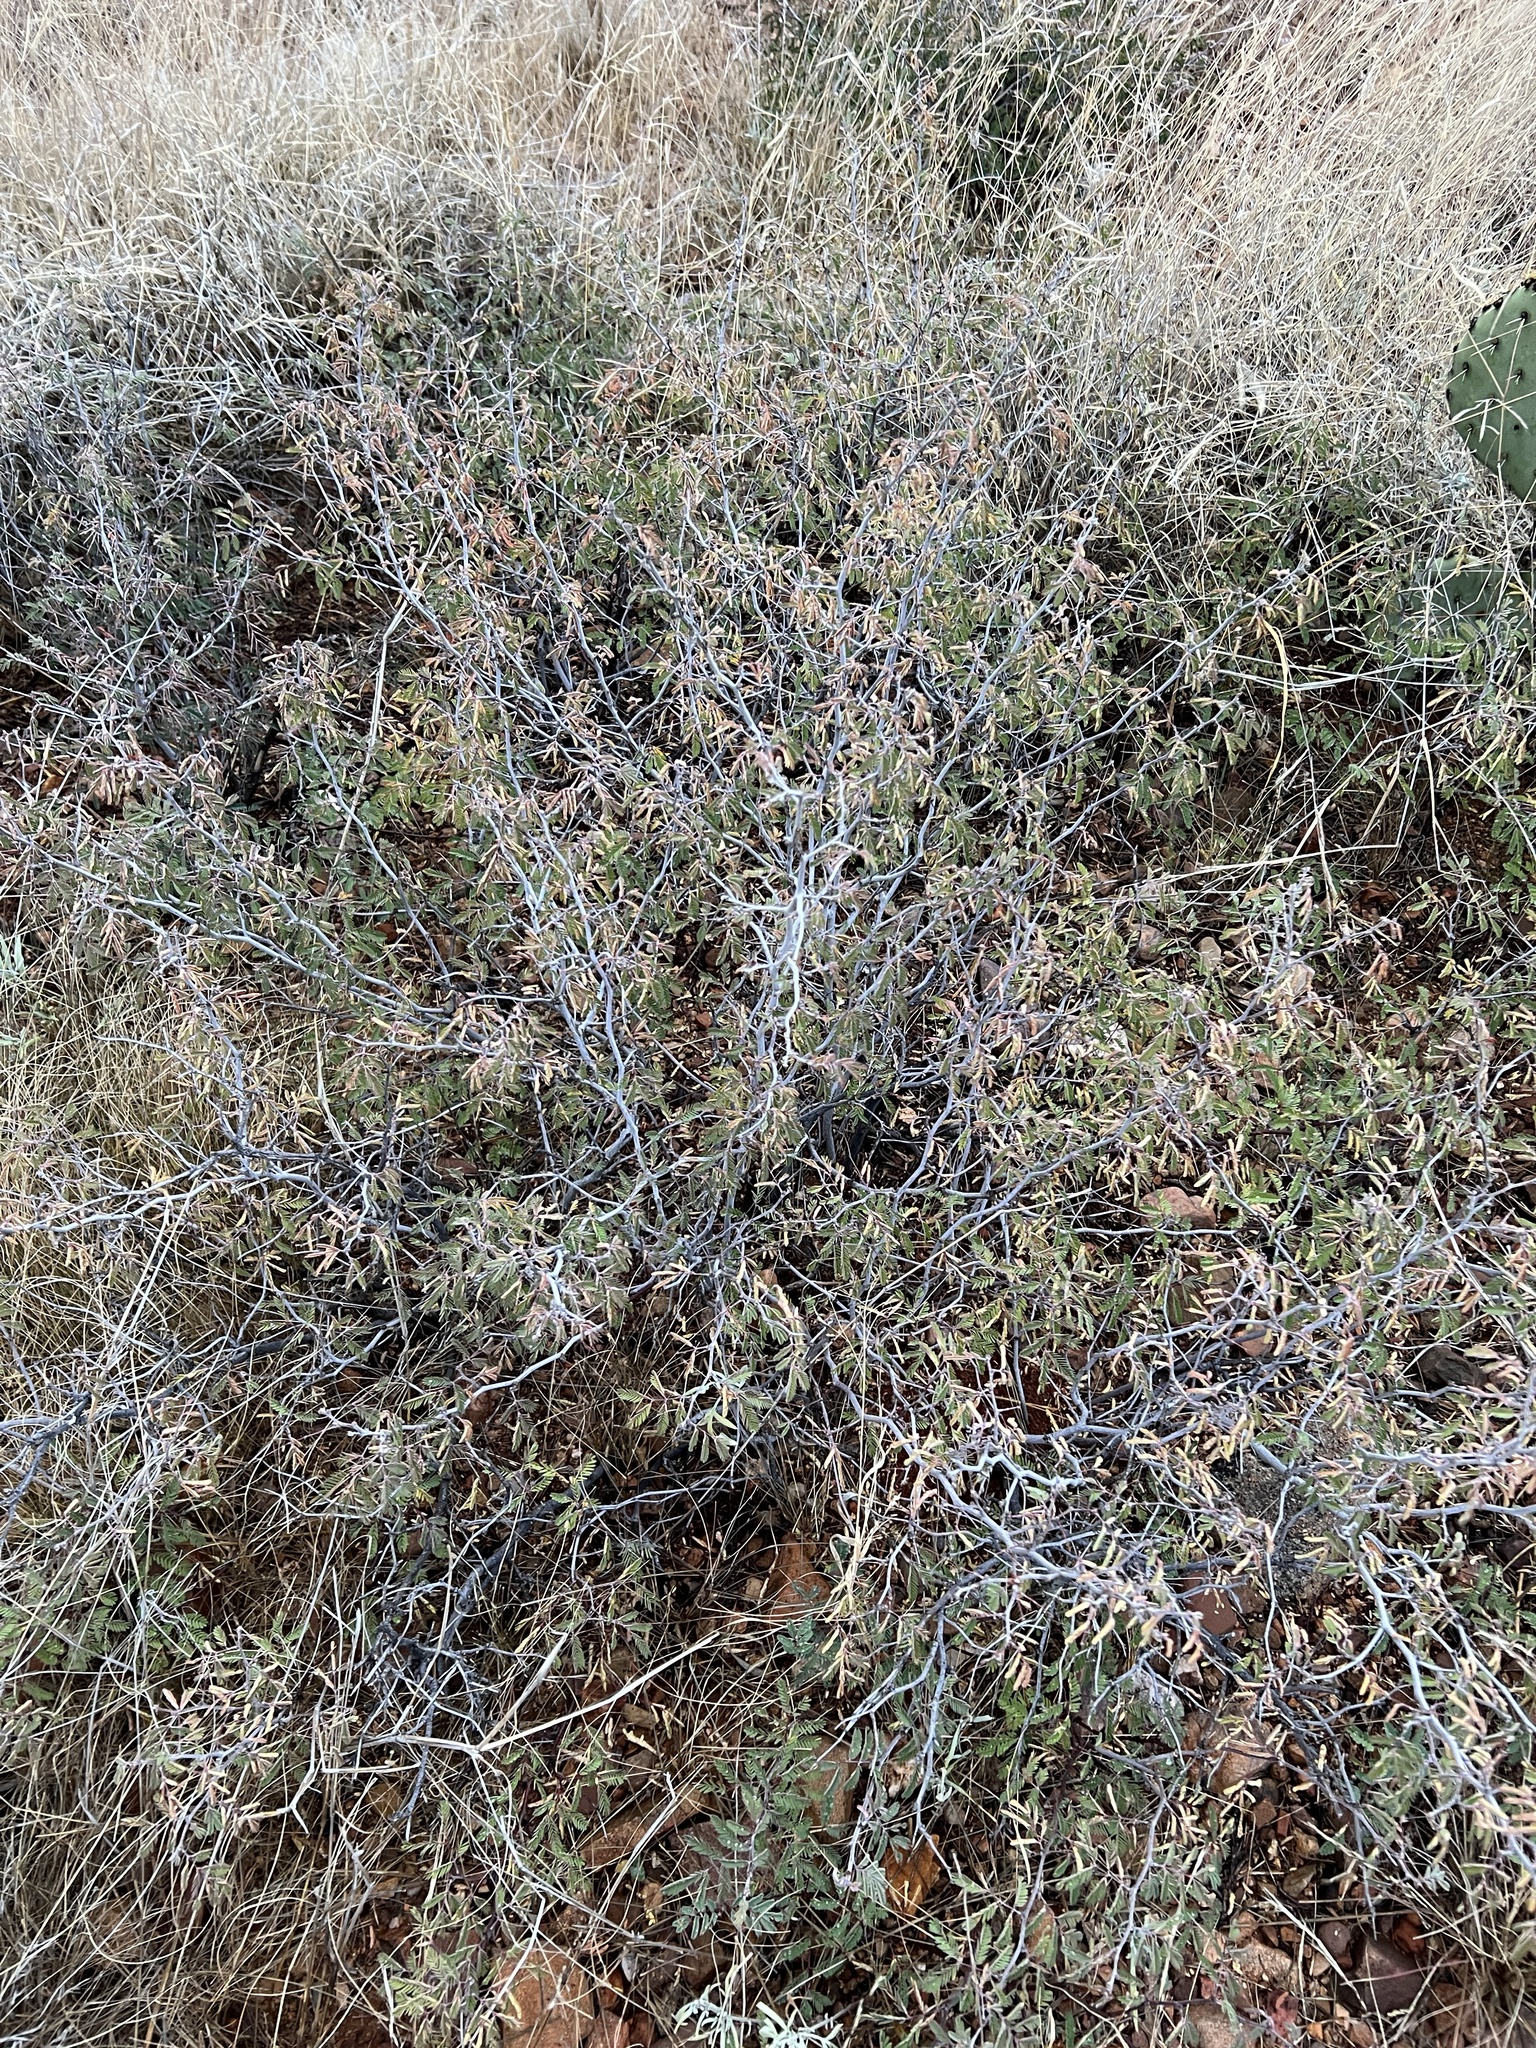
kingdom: Plantae
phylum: Tracheophyta
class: Magnoliopsida
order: Fabales
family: Fabaceae
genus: Calliandra
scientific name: Calliandra eriophylla
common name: Fairy-duster
